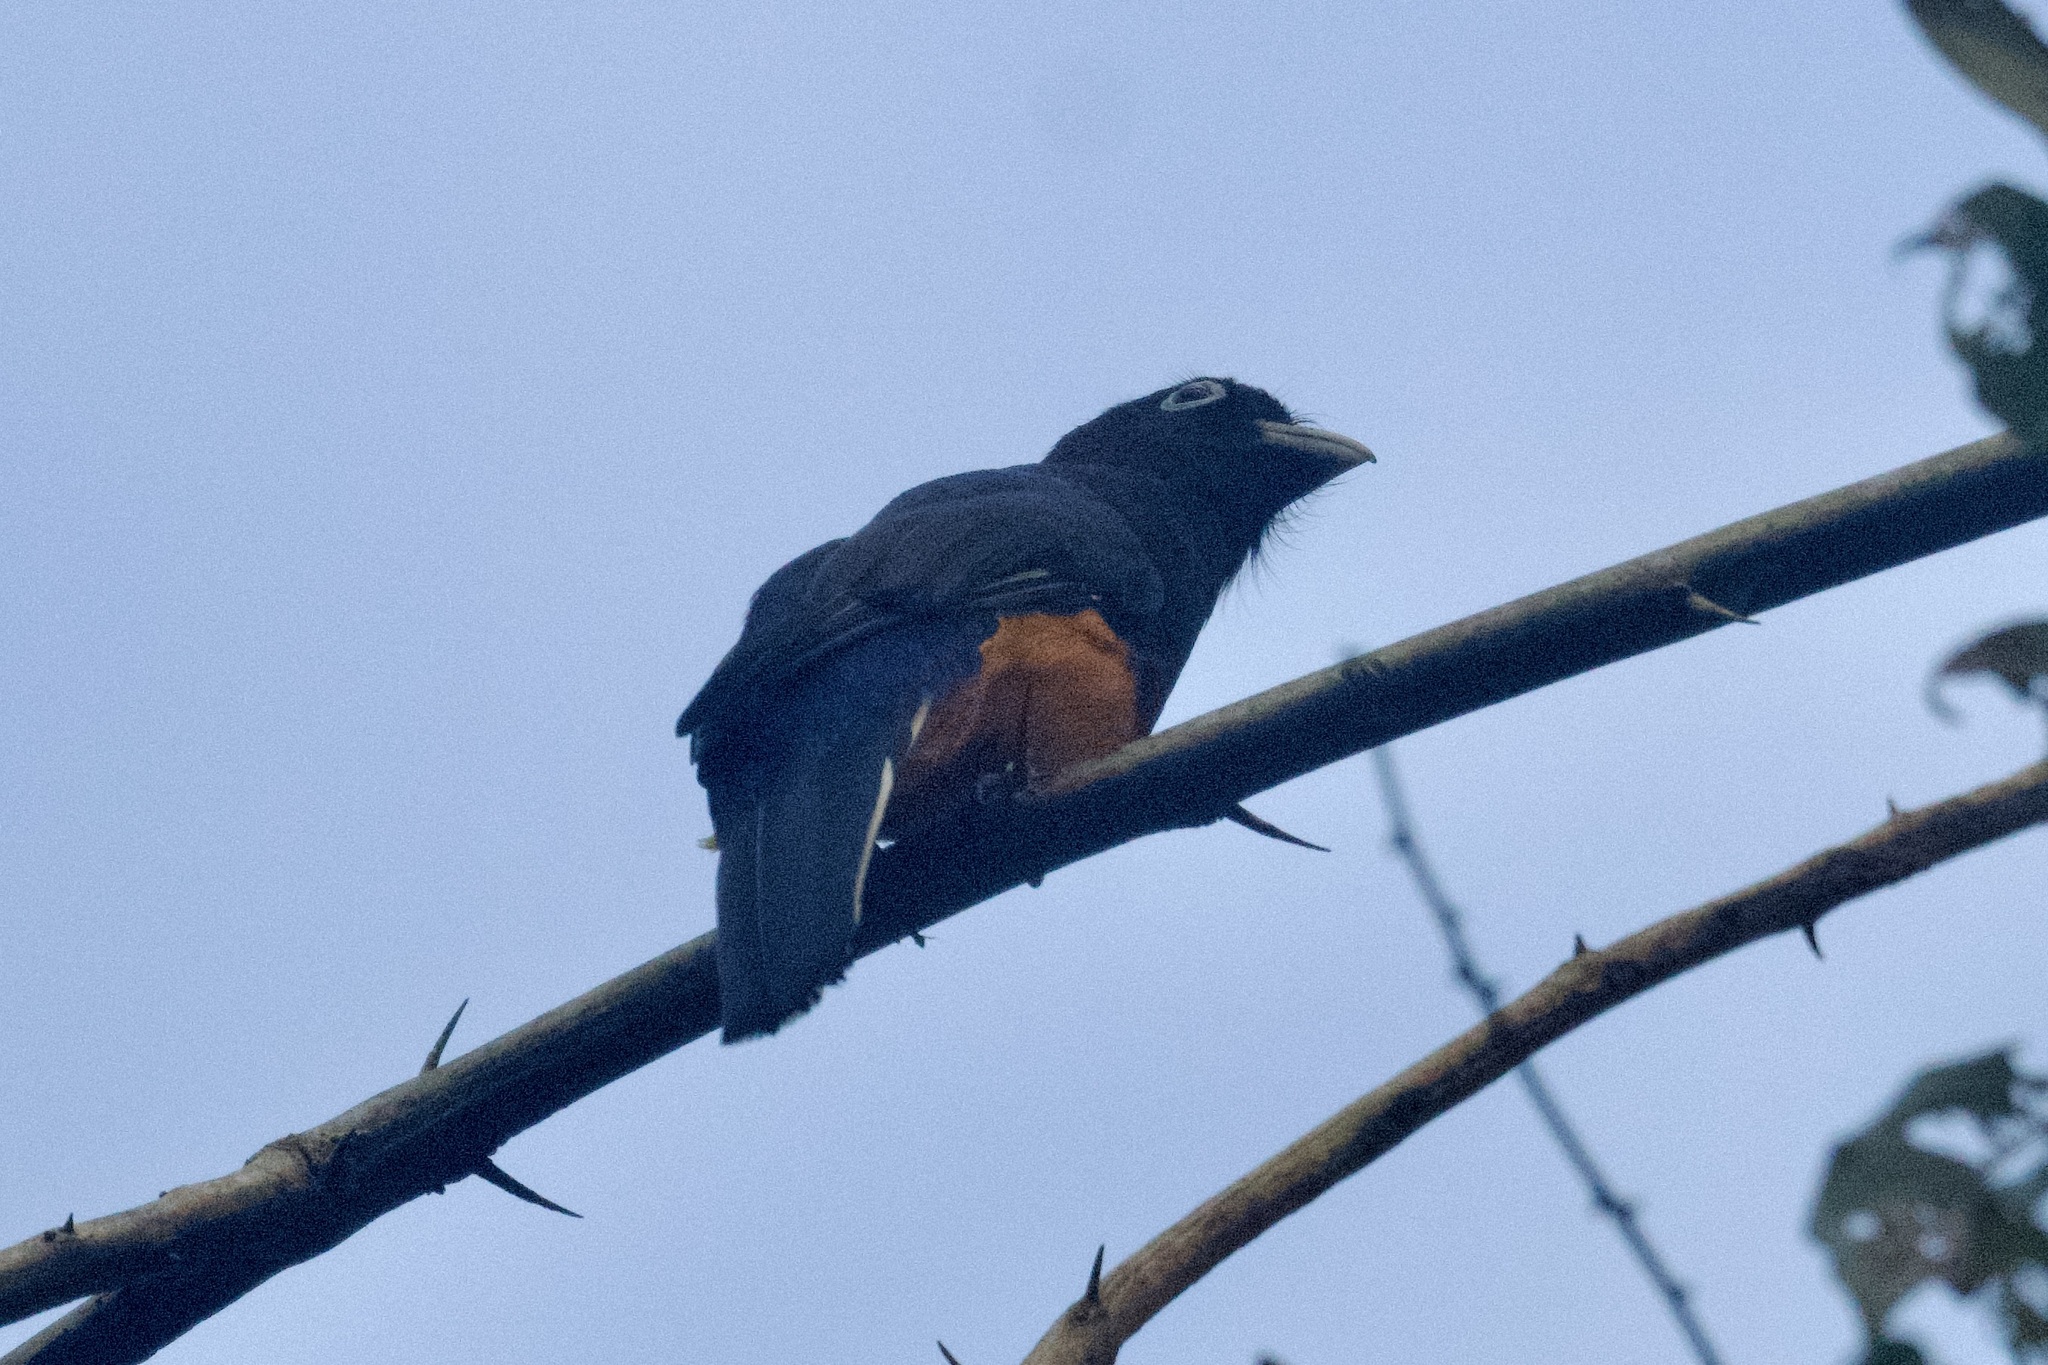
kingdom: Animalia
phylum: Chordata
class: Aves
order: Trogoniformes
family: Trogonidae
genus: Trogon
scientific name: Trogon chionurus
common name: White-tailed trogon
